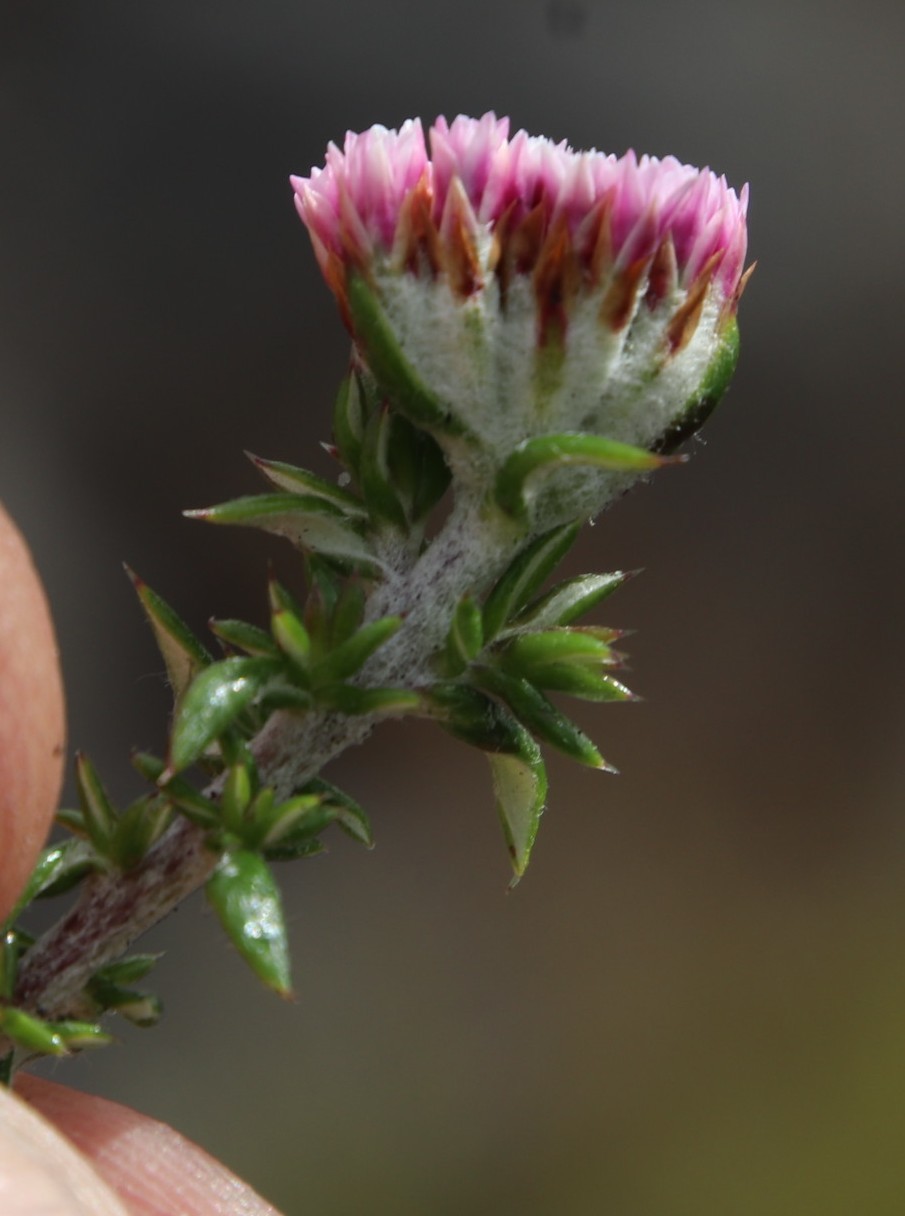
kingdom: Plantae
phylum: Tracheophyta
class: Magnoliopsida
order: Asterales
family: Asteraceae
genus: Metalasia
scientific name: Metalasia divergens
